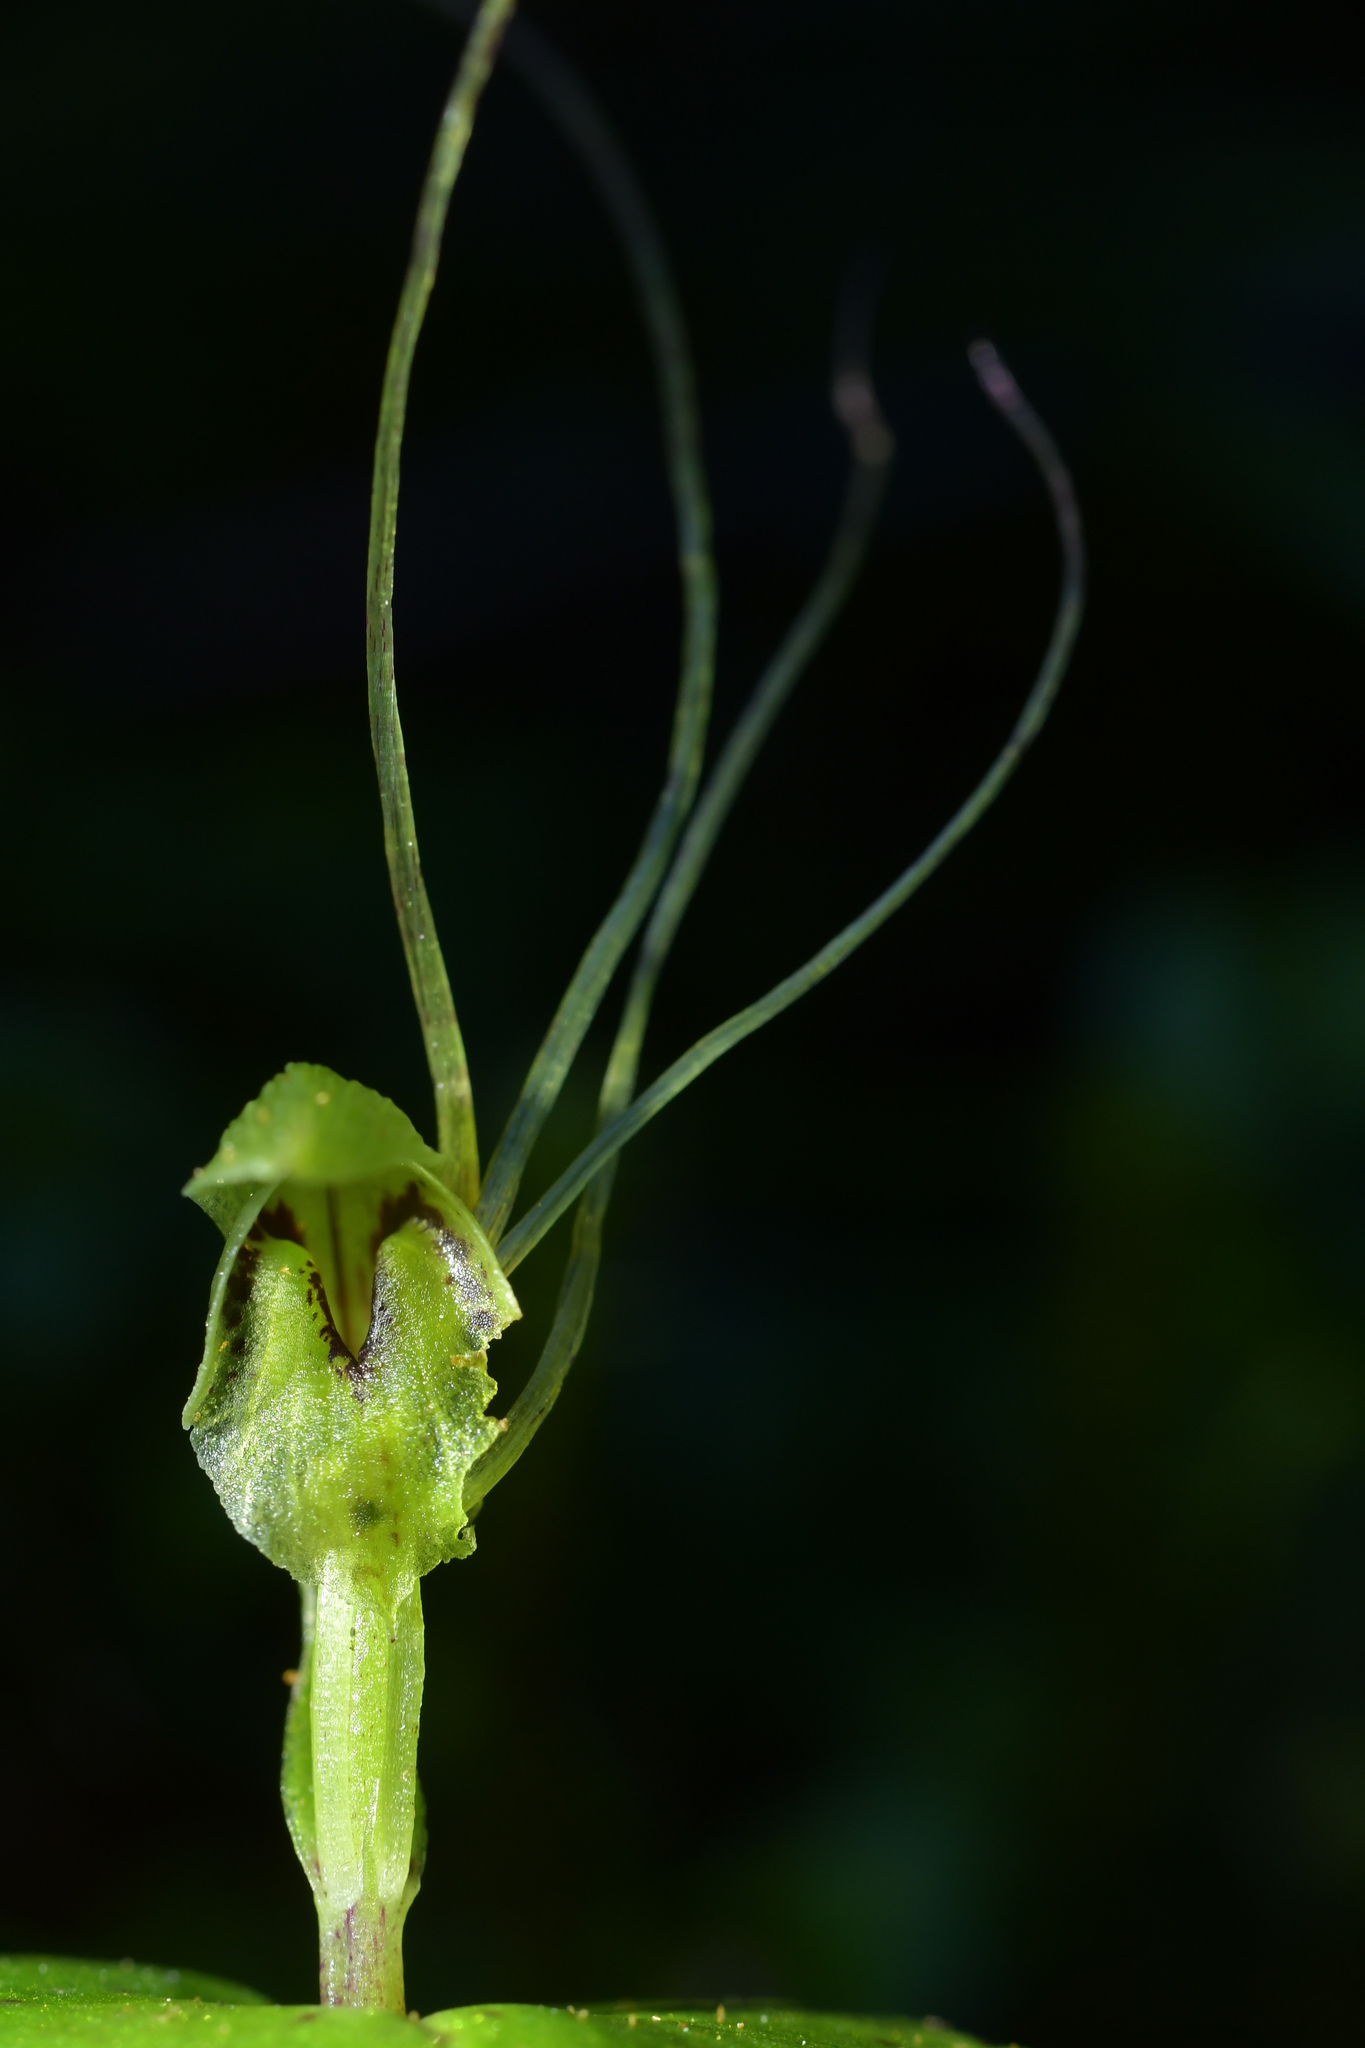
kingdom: Plantae
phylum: Tracheophyta
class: Liliopsida
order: Asparagales
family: Orchidaceae
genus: Corybas
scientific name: Corybas papa
